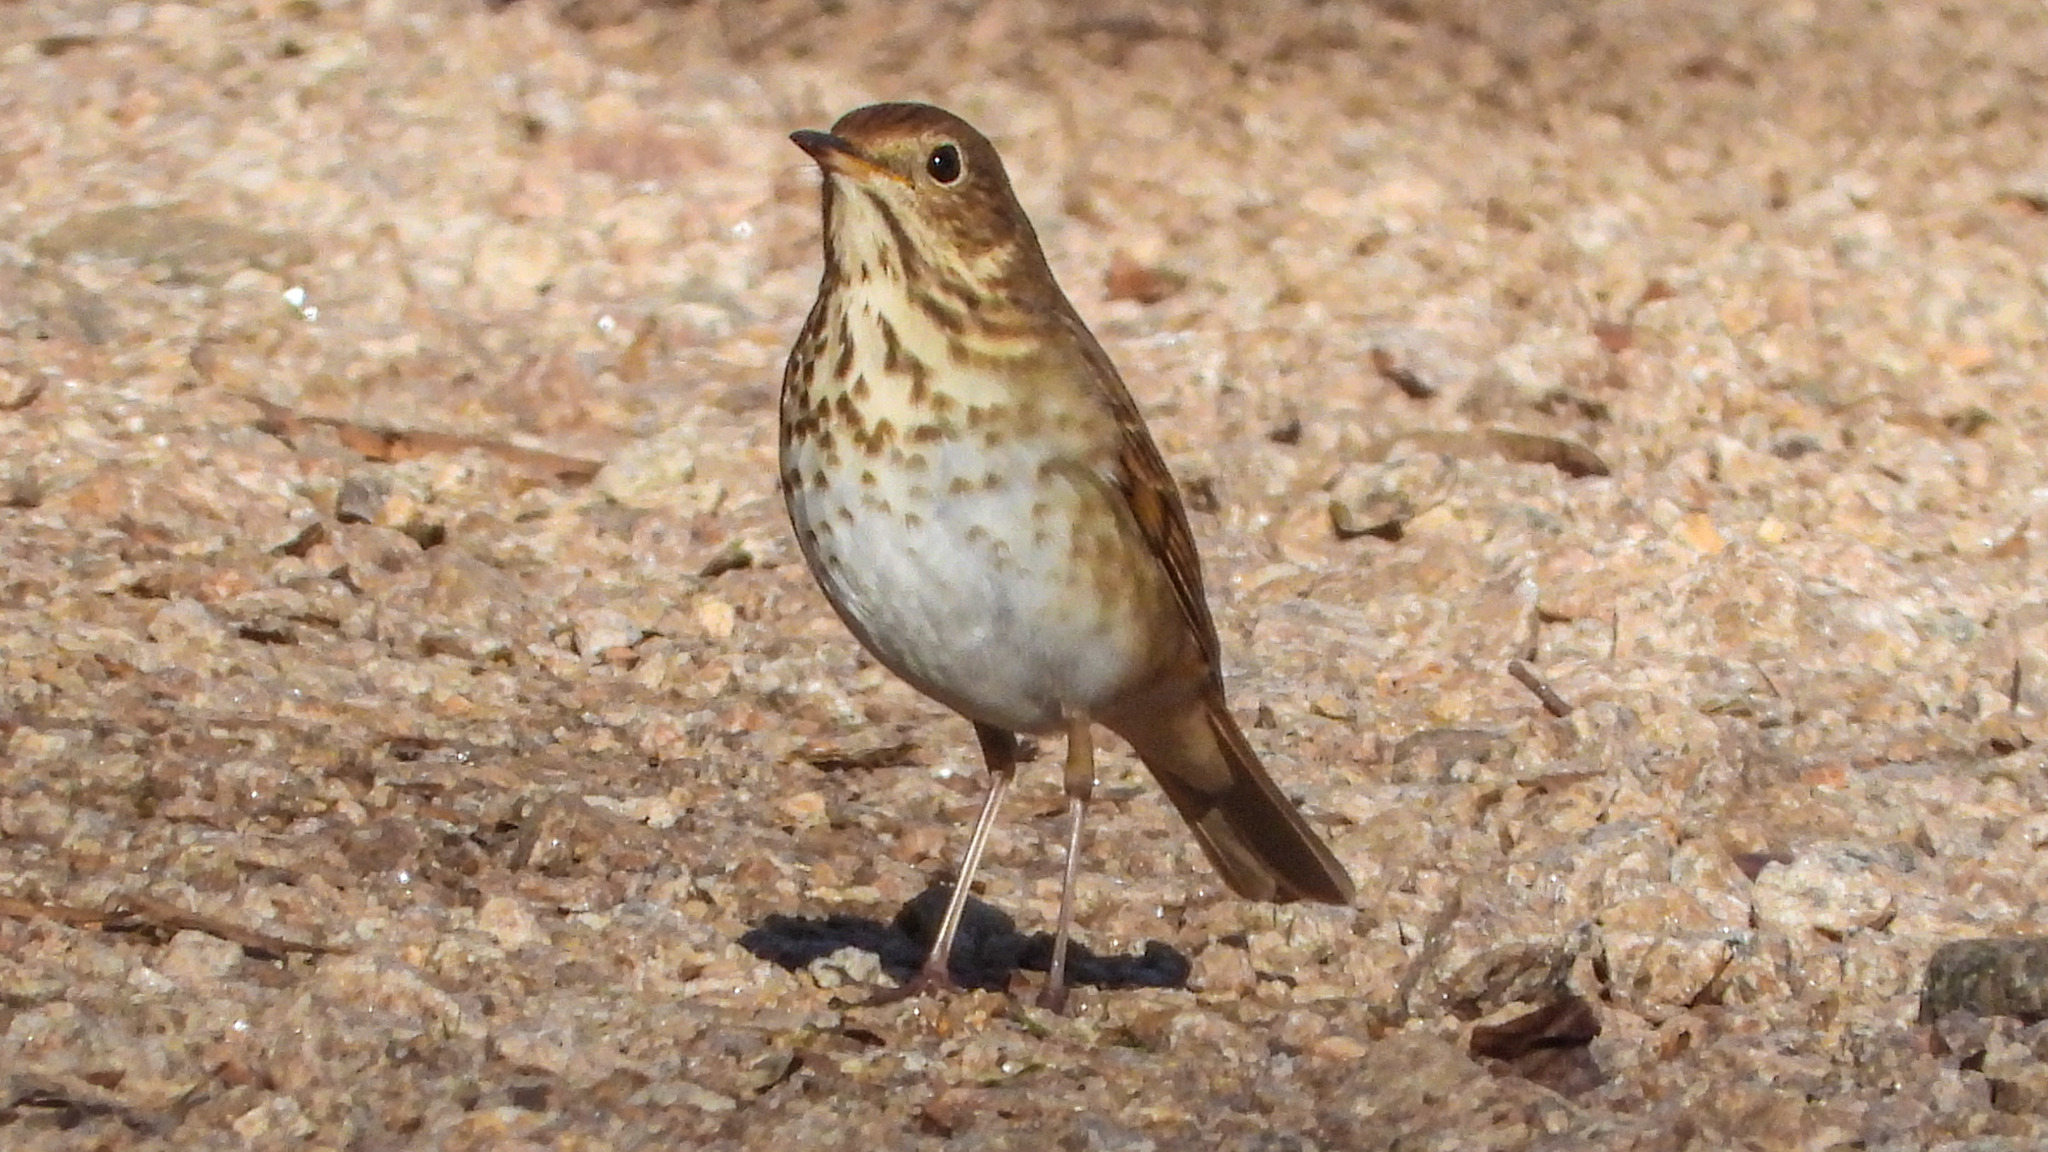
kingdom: Animalia
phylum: Chordata
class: Aves
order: Passeriformes
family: Turdidae
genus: Catharus
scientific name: Catharus guttatus
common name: Hermit thrush
